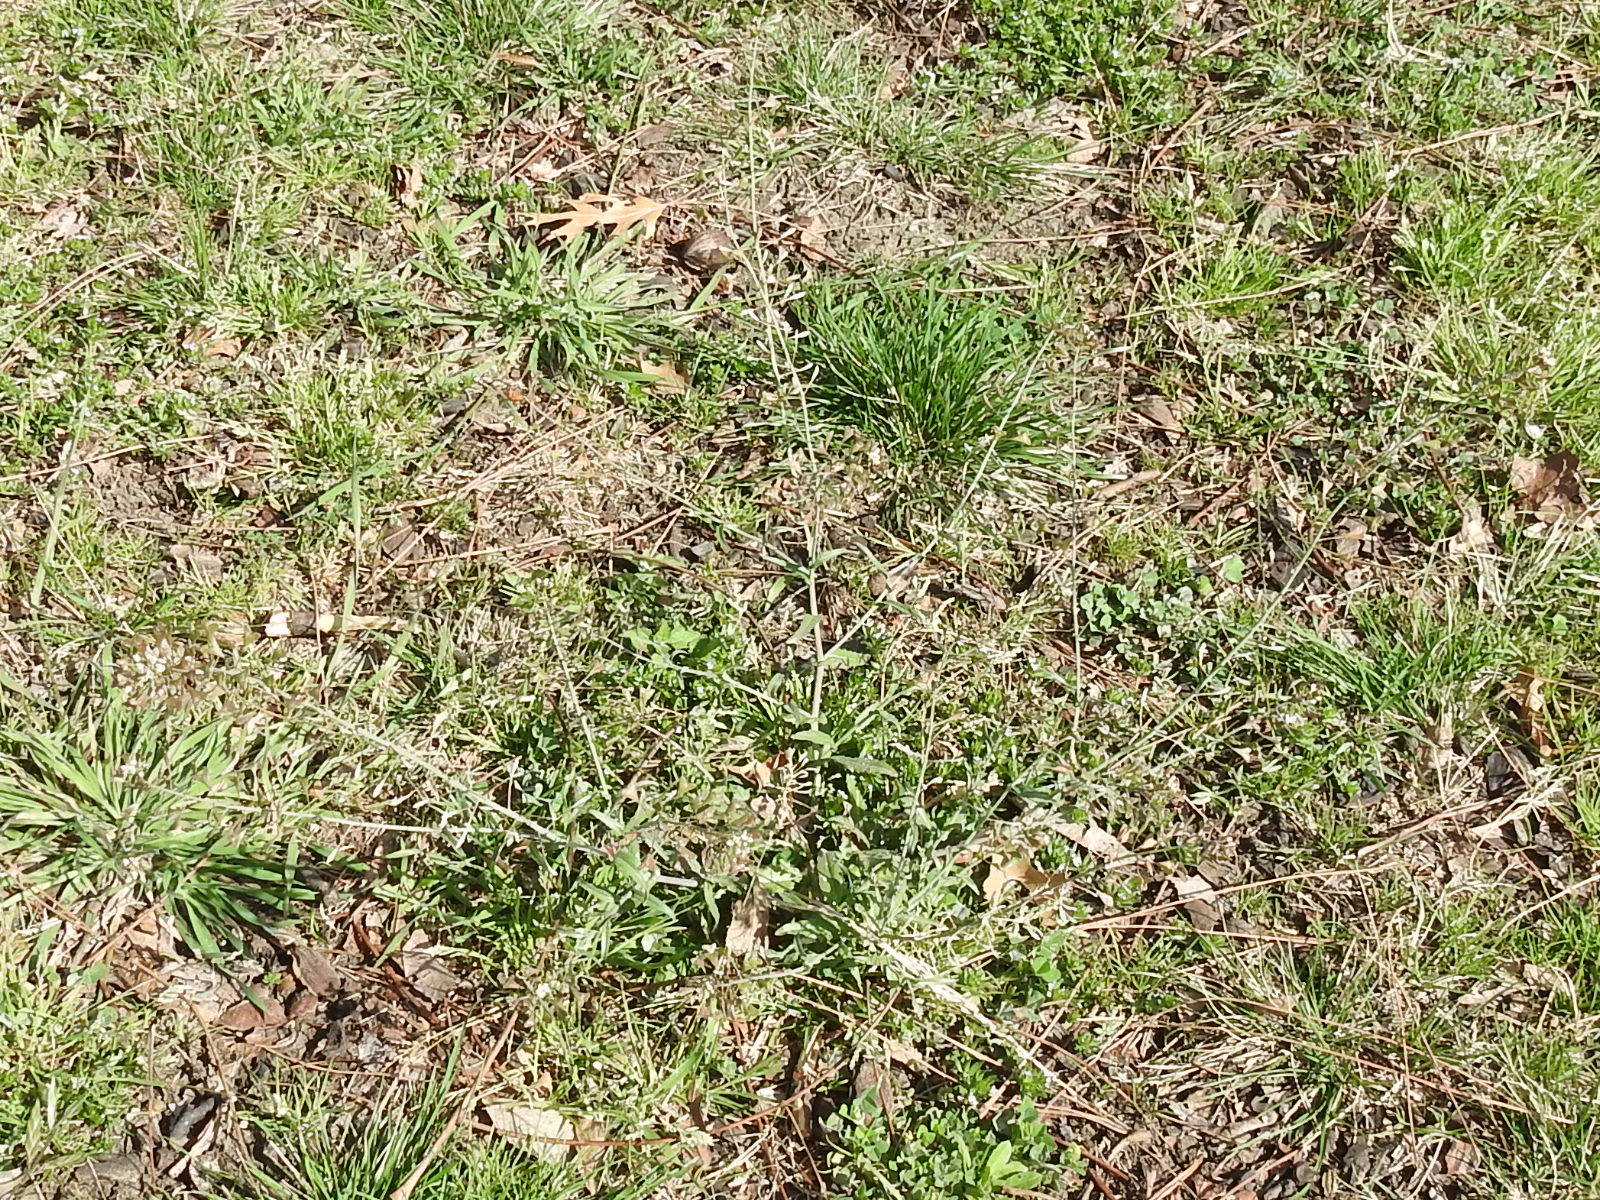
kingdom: Plantae
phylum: Tracheophyta
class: Magnoliopsida
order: Brassicales
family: Brassicaceae
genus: Capsella
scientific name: Capsella bursa-pastoris
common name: Shepherd's purse
